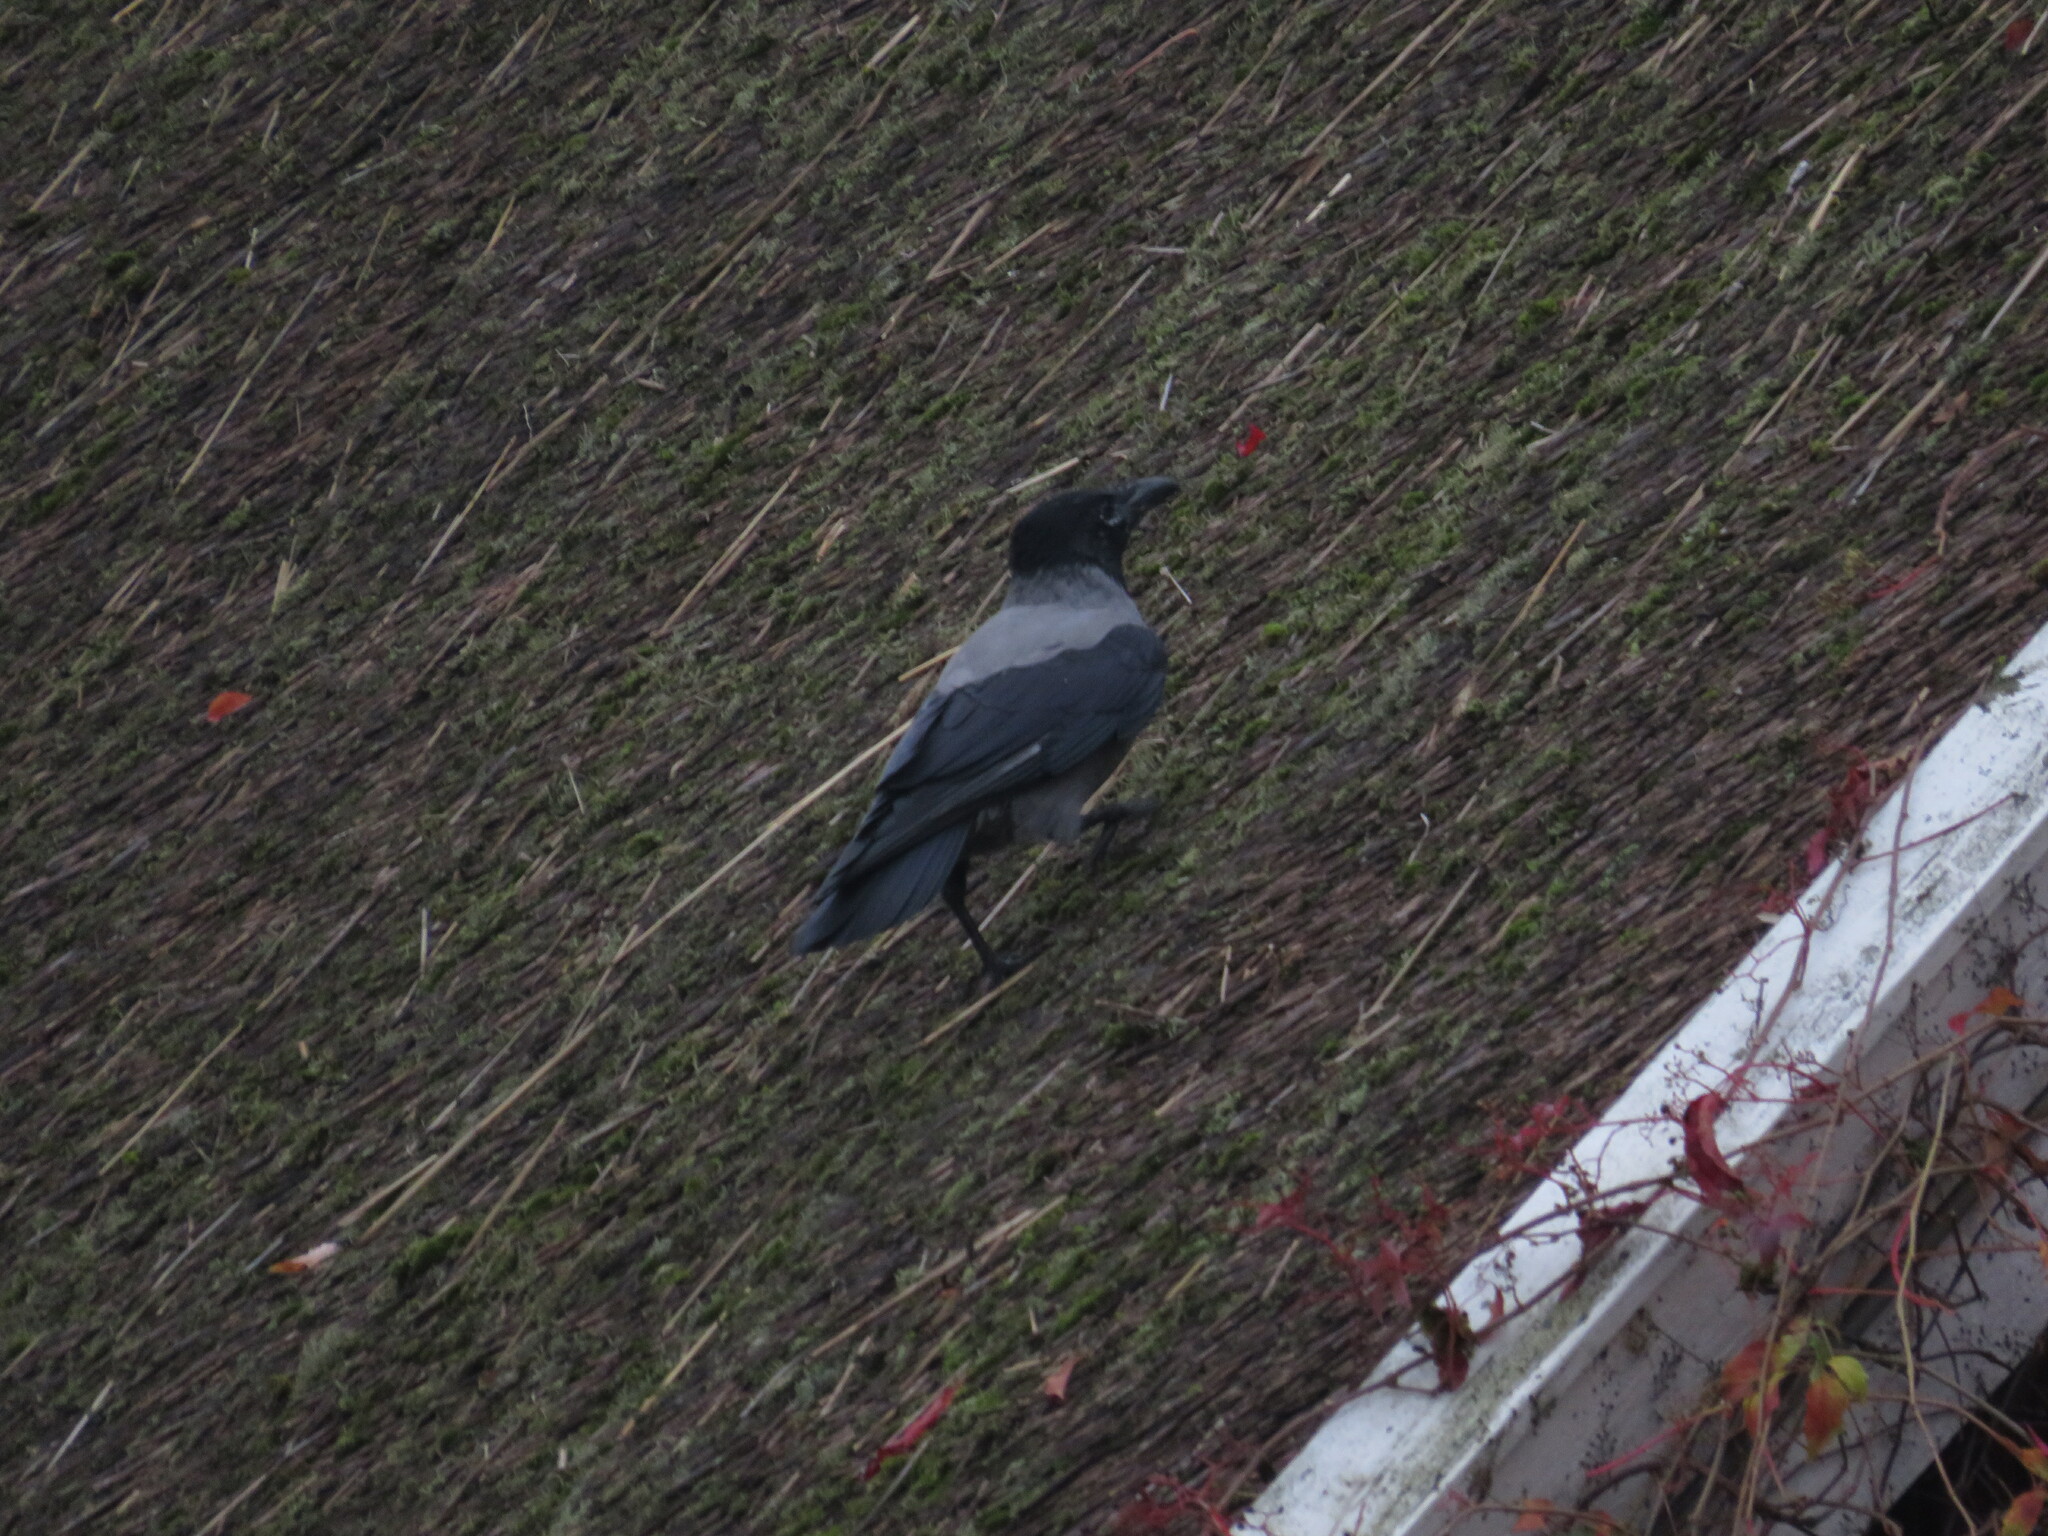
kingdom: Animalia
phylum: Chordata
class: Aves
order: Passeriformes
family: Corvidae
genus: Corvus
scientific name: Corvus cornix
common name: Hooded crow
